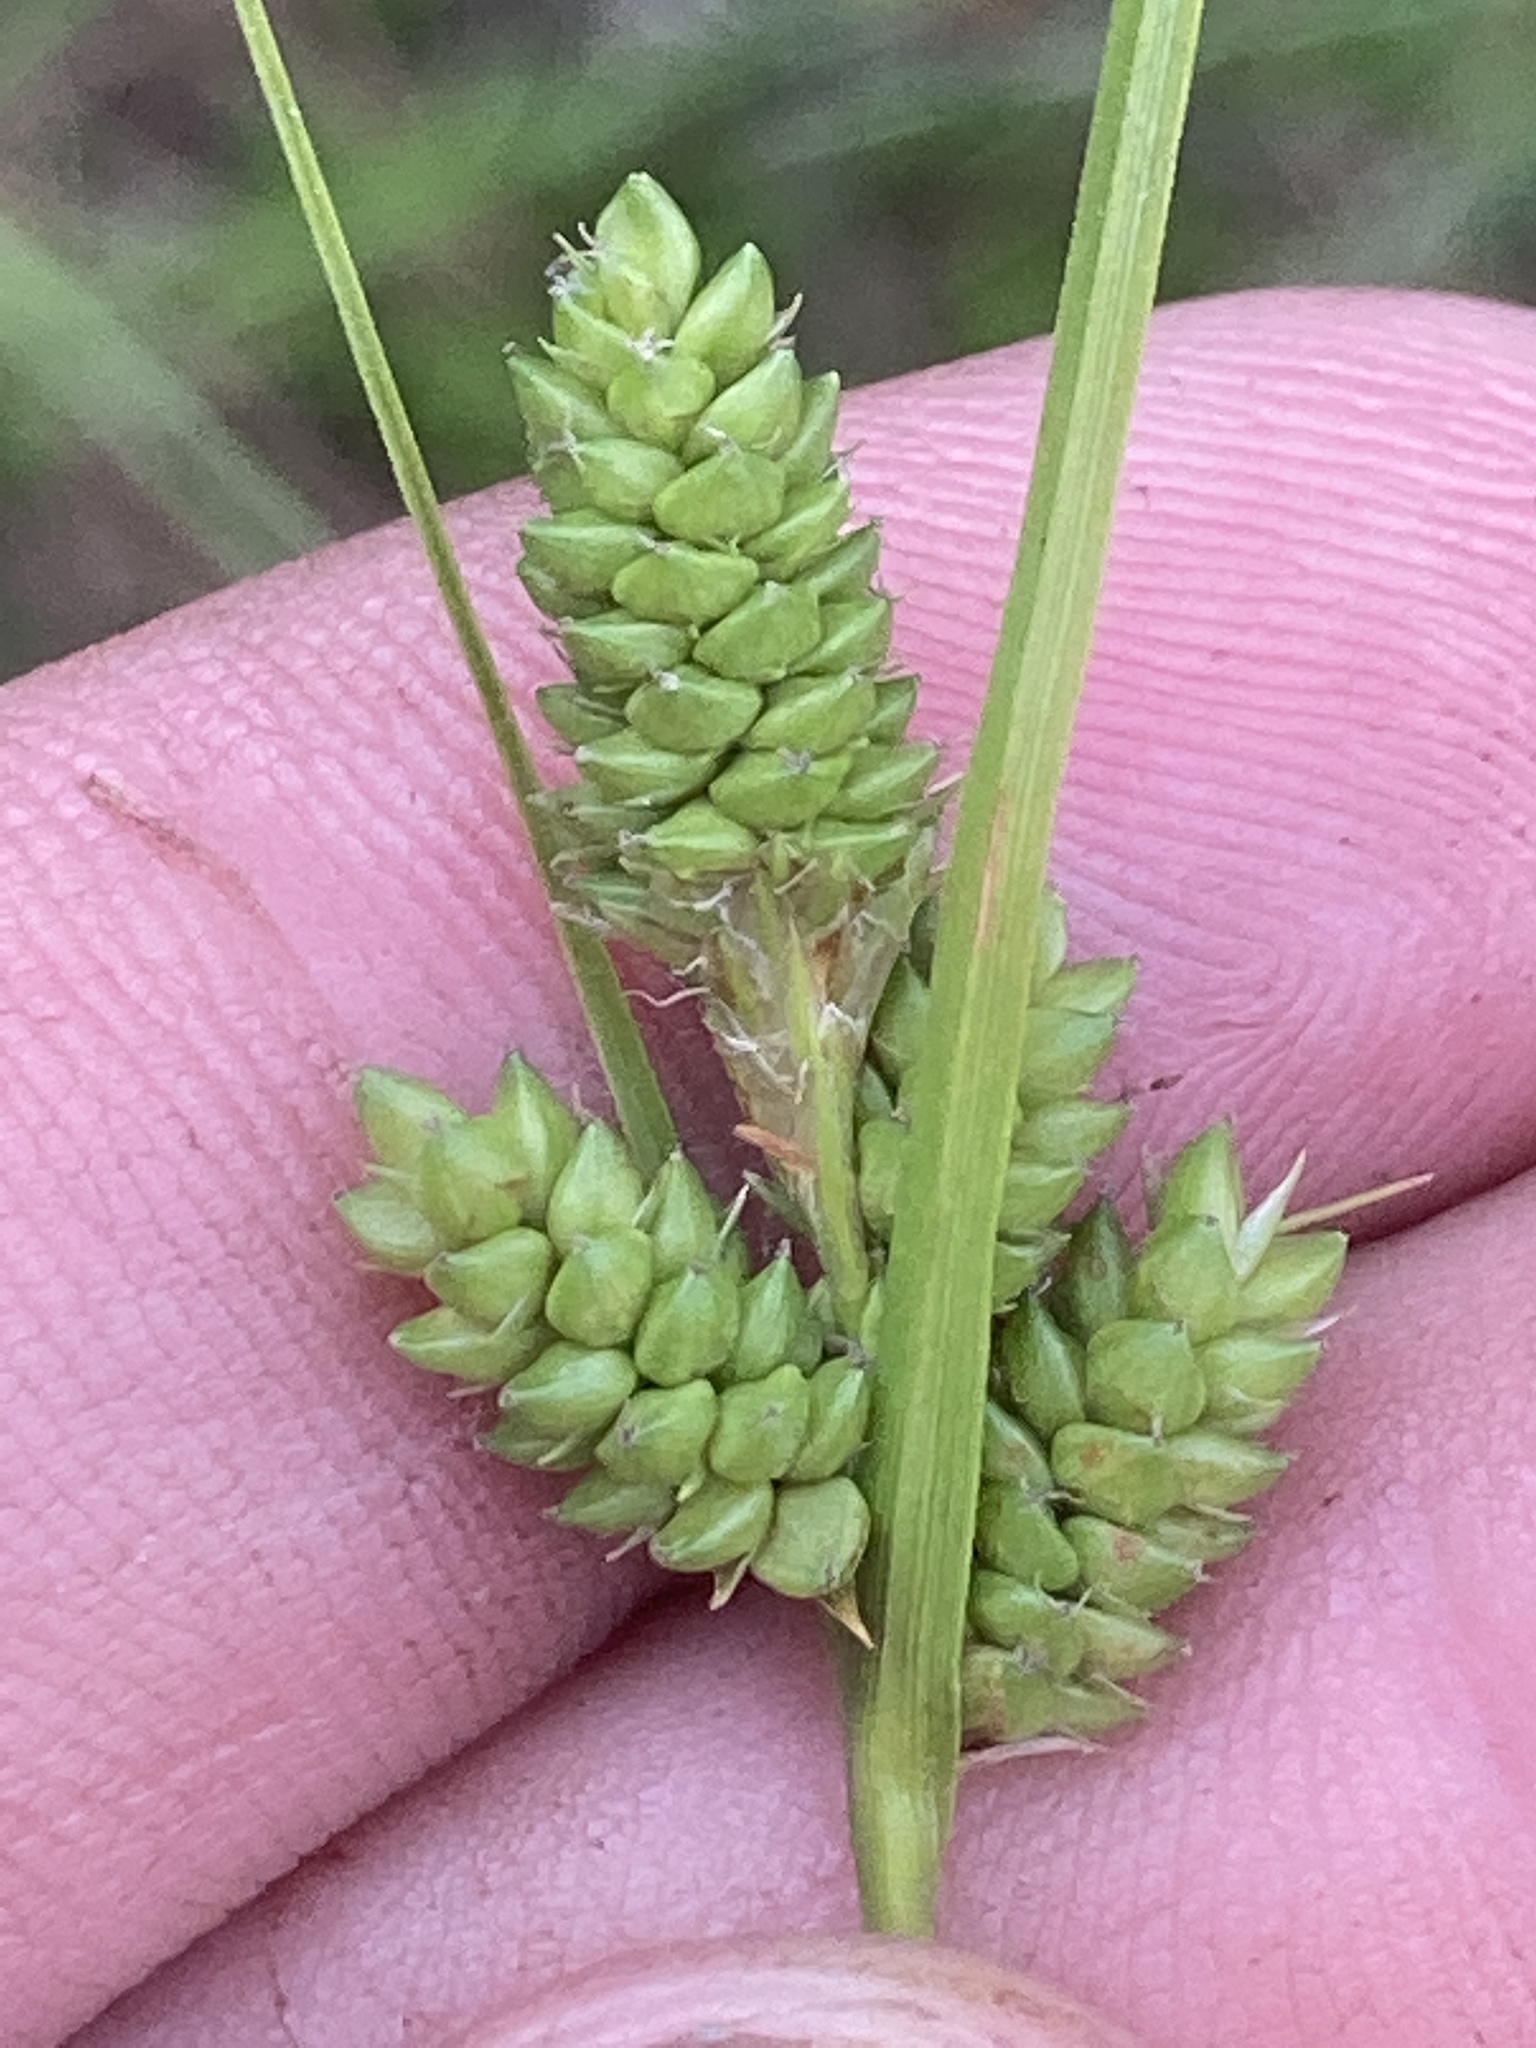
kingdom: Plantae
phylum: Tracheophyta
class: Liliopsida
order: Poales
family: Cyperaceae
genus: Carex
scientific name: Carex complanata
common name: Hirsute sedge
